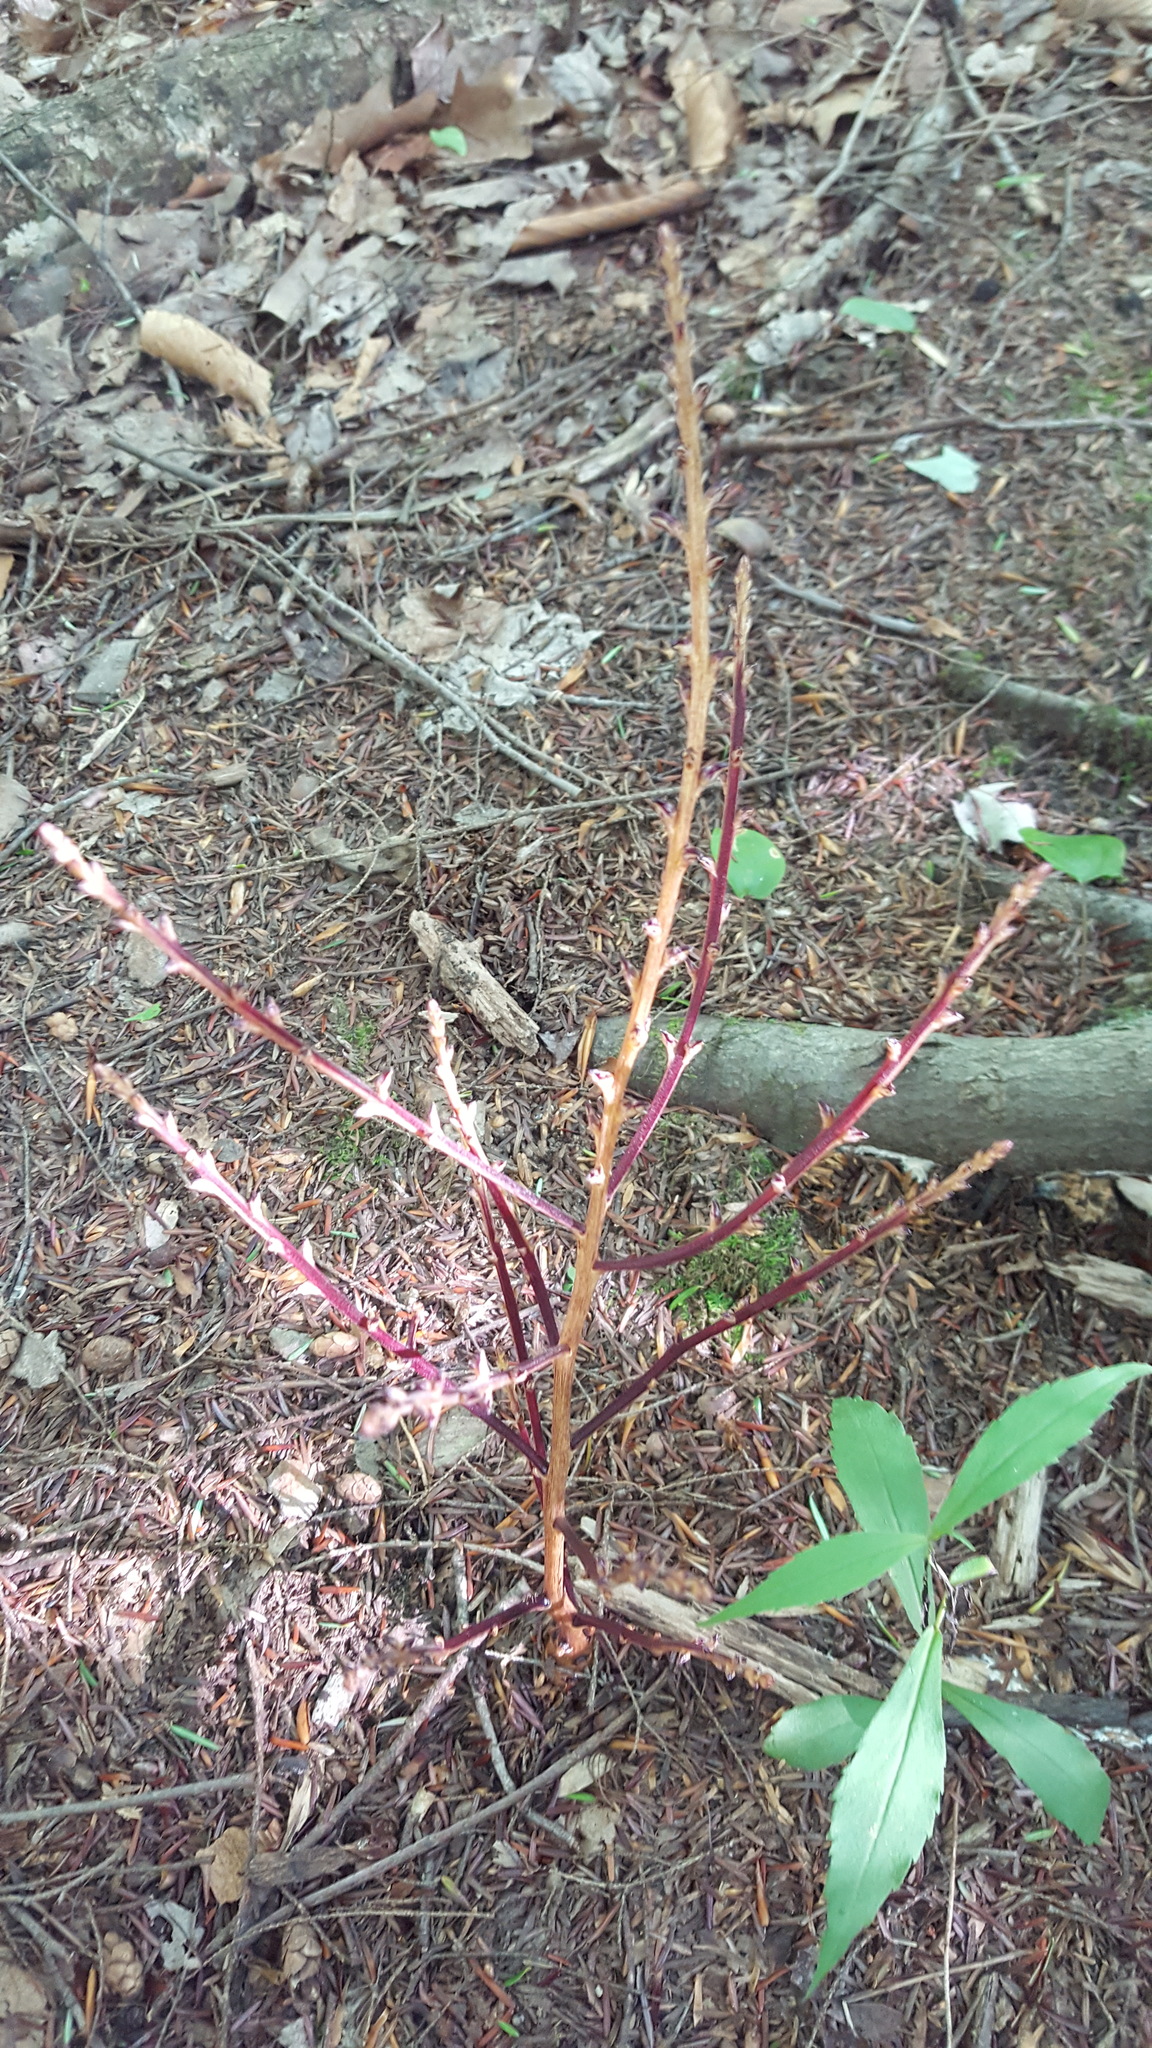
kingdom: Plantae
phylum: Tracheophyta
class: Magnoliopsida
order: Lamiales
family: Orobanchaceae
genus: Epifagus
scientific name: Epifagus virginiana
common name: Beechdrops
